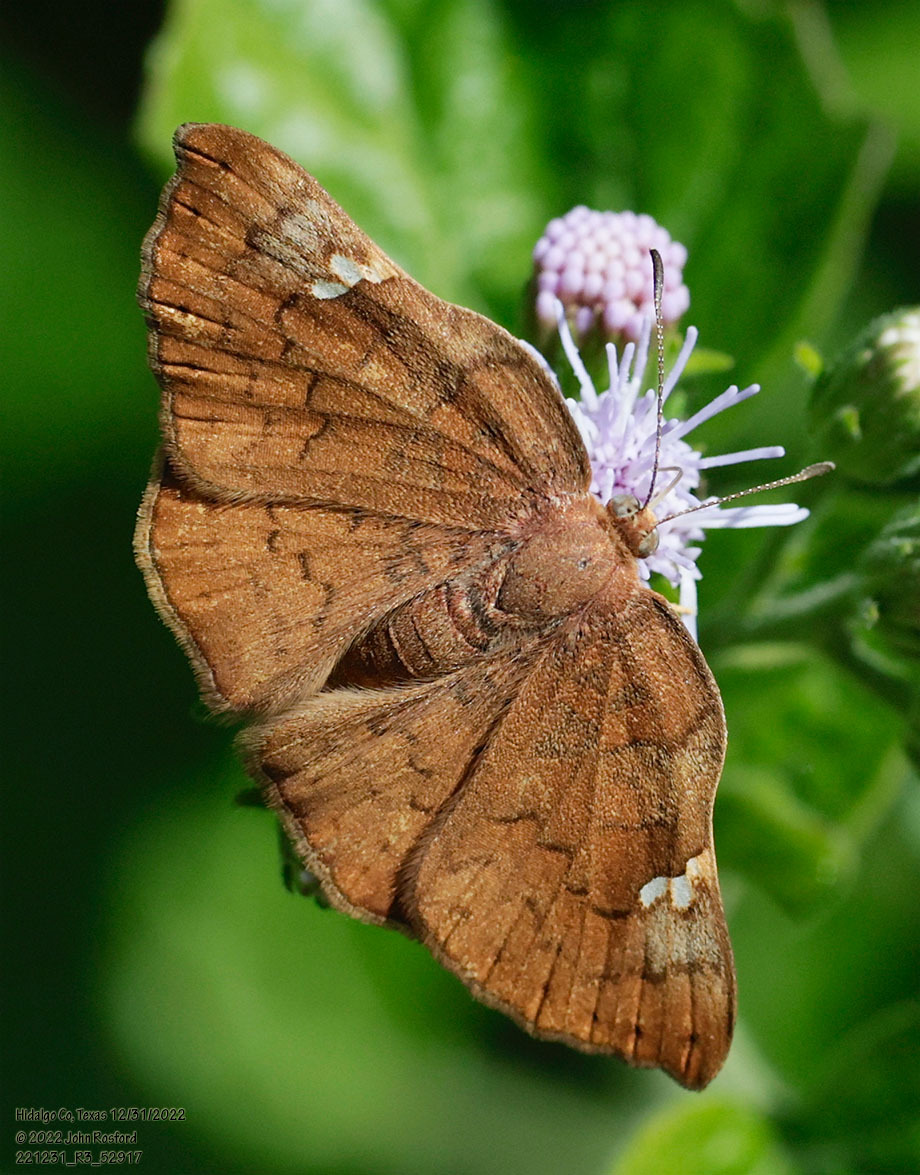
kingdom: Animalia
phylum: Arthropoda
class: Insecta
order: Lepidoptera
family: Riodinidae
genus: Curvie
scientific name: Curvie emesia
